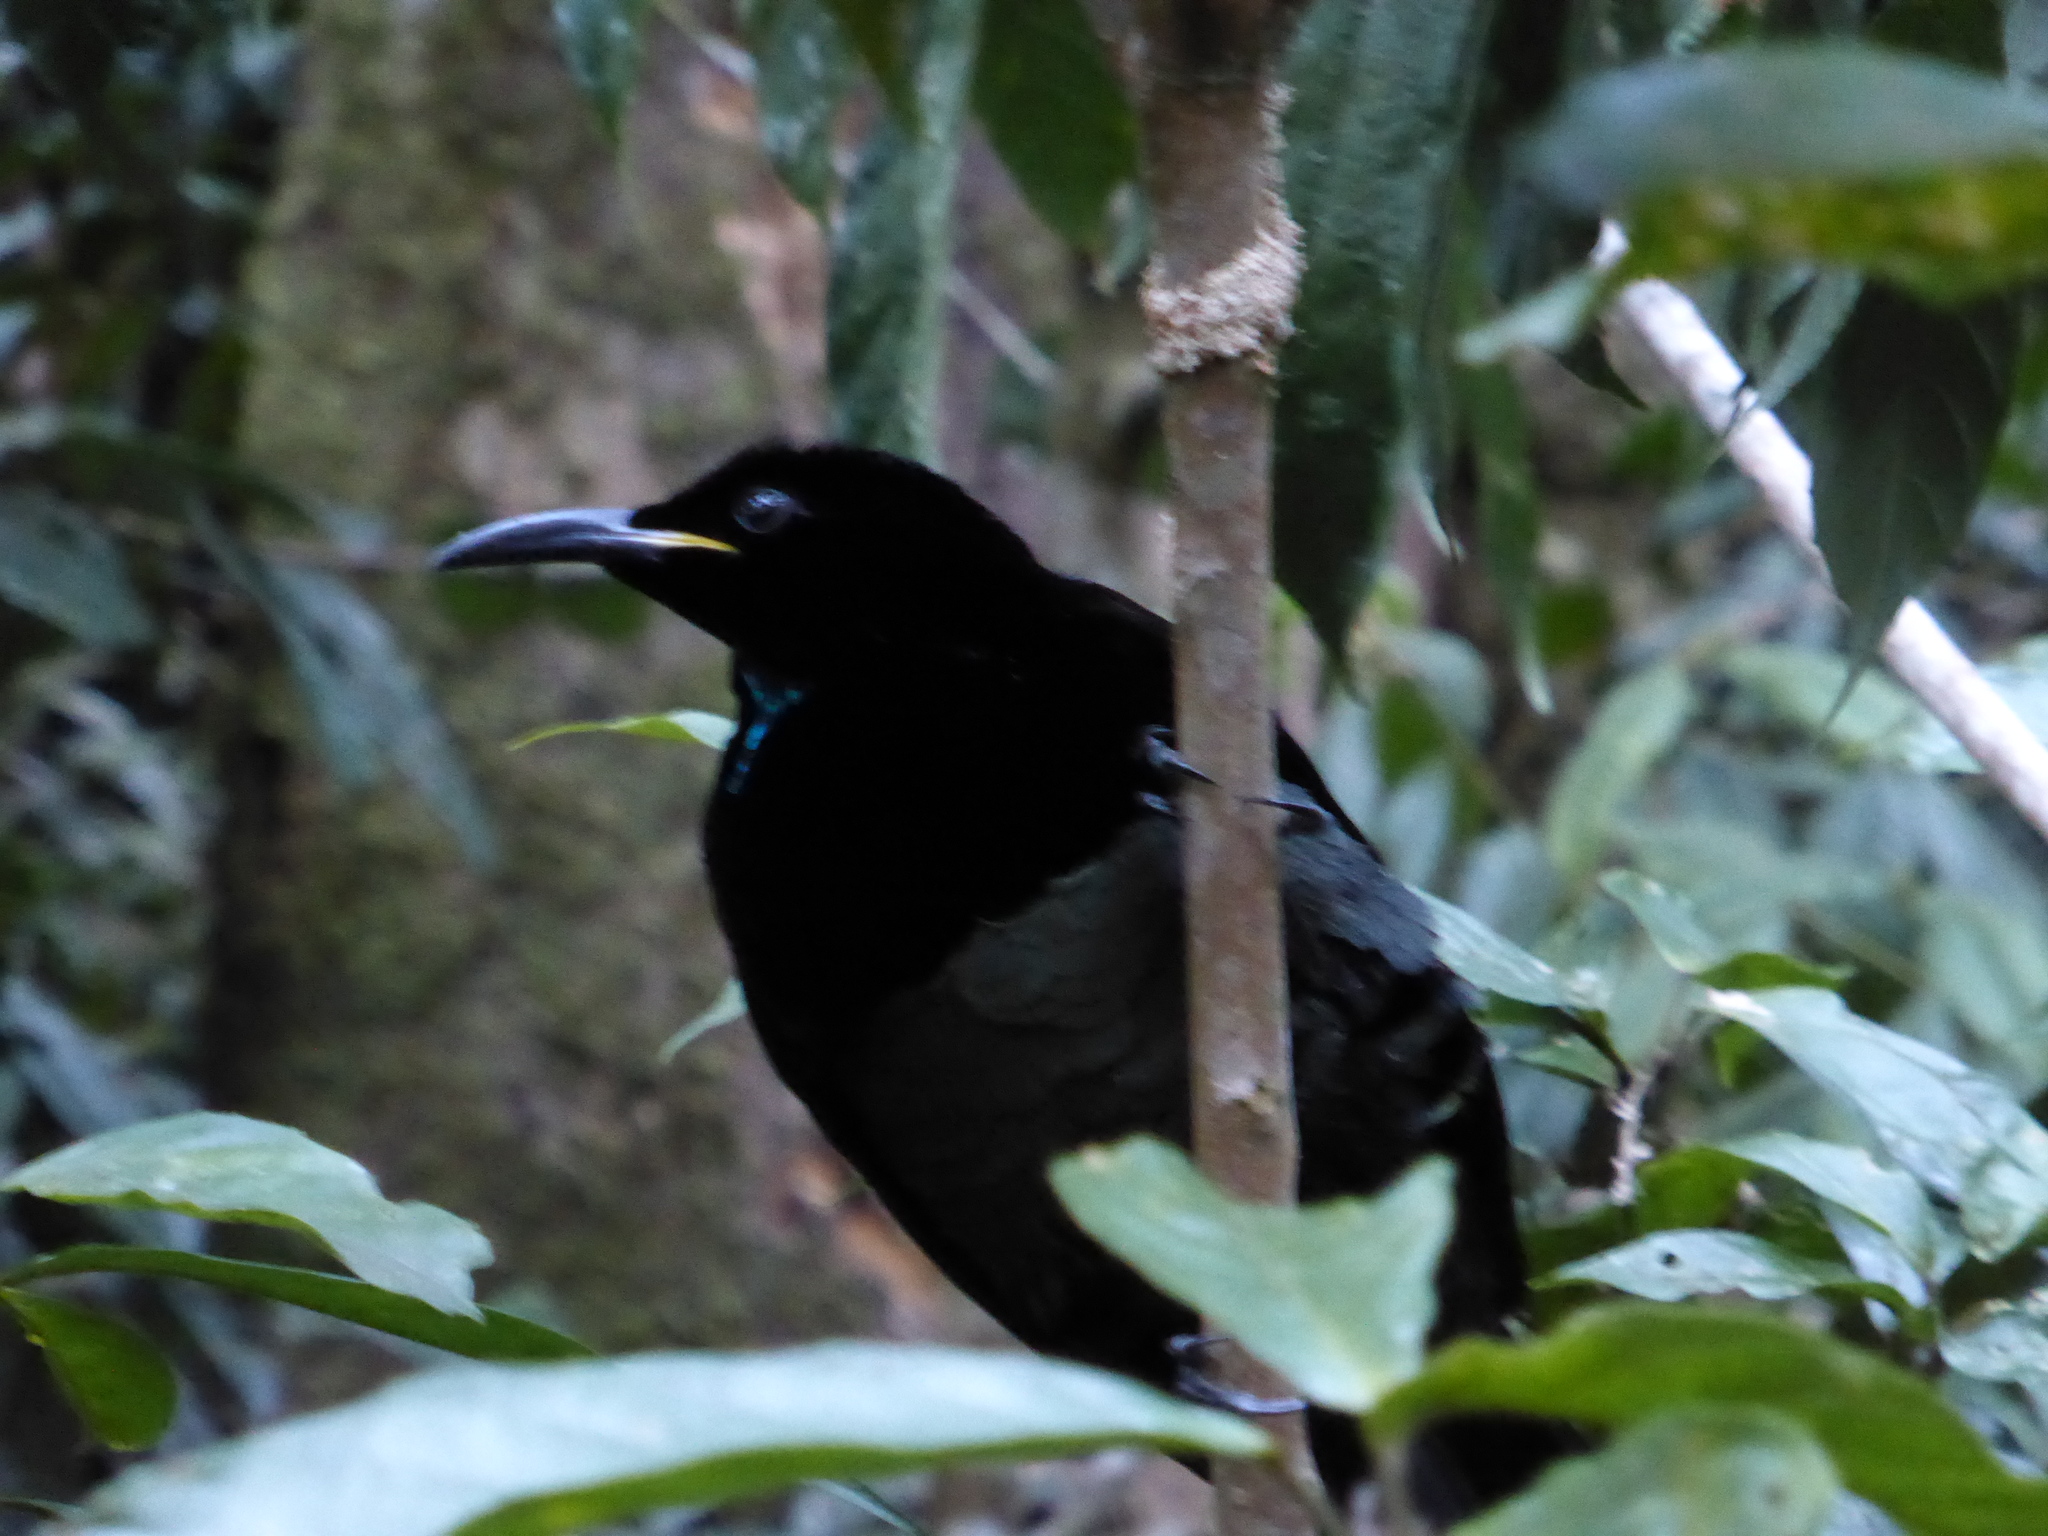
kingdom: Animalia
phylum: Chordata
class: Aves
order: Passeriformes
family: Paradisaeidae
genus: Ptiloris
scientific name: Ptiloris victoriae
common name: Victoria's riflebird
